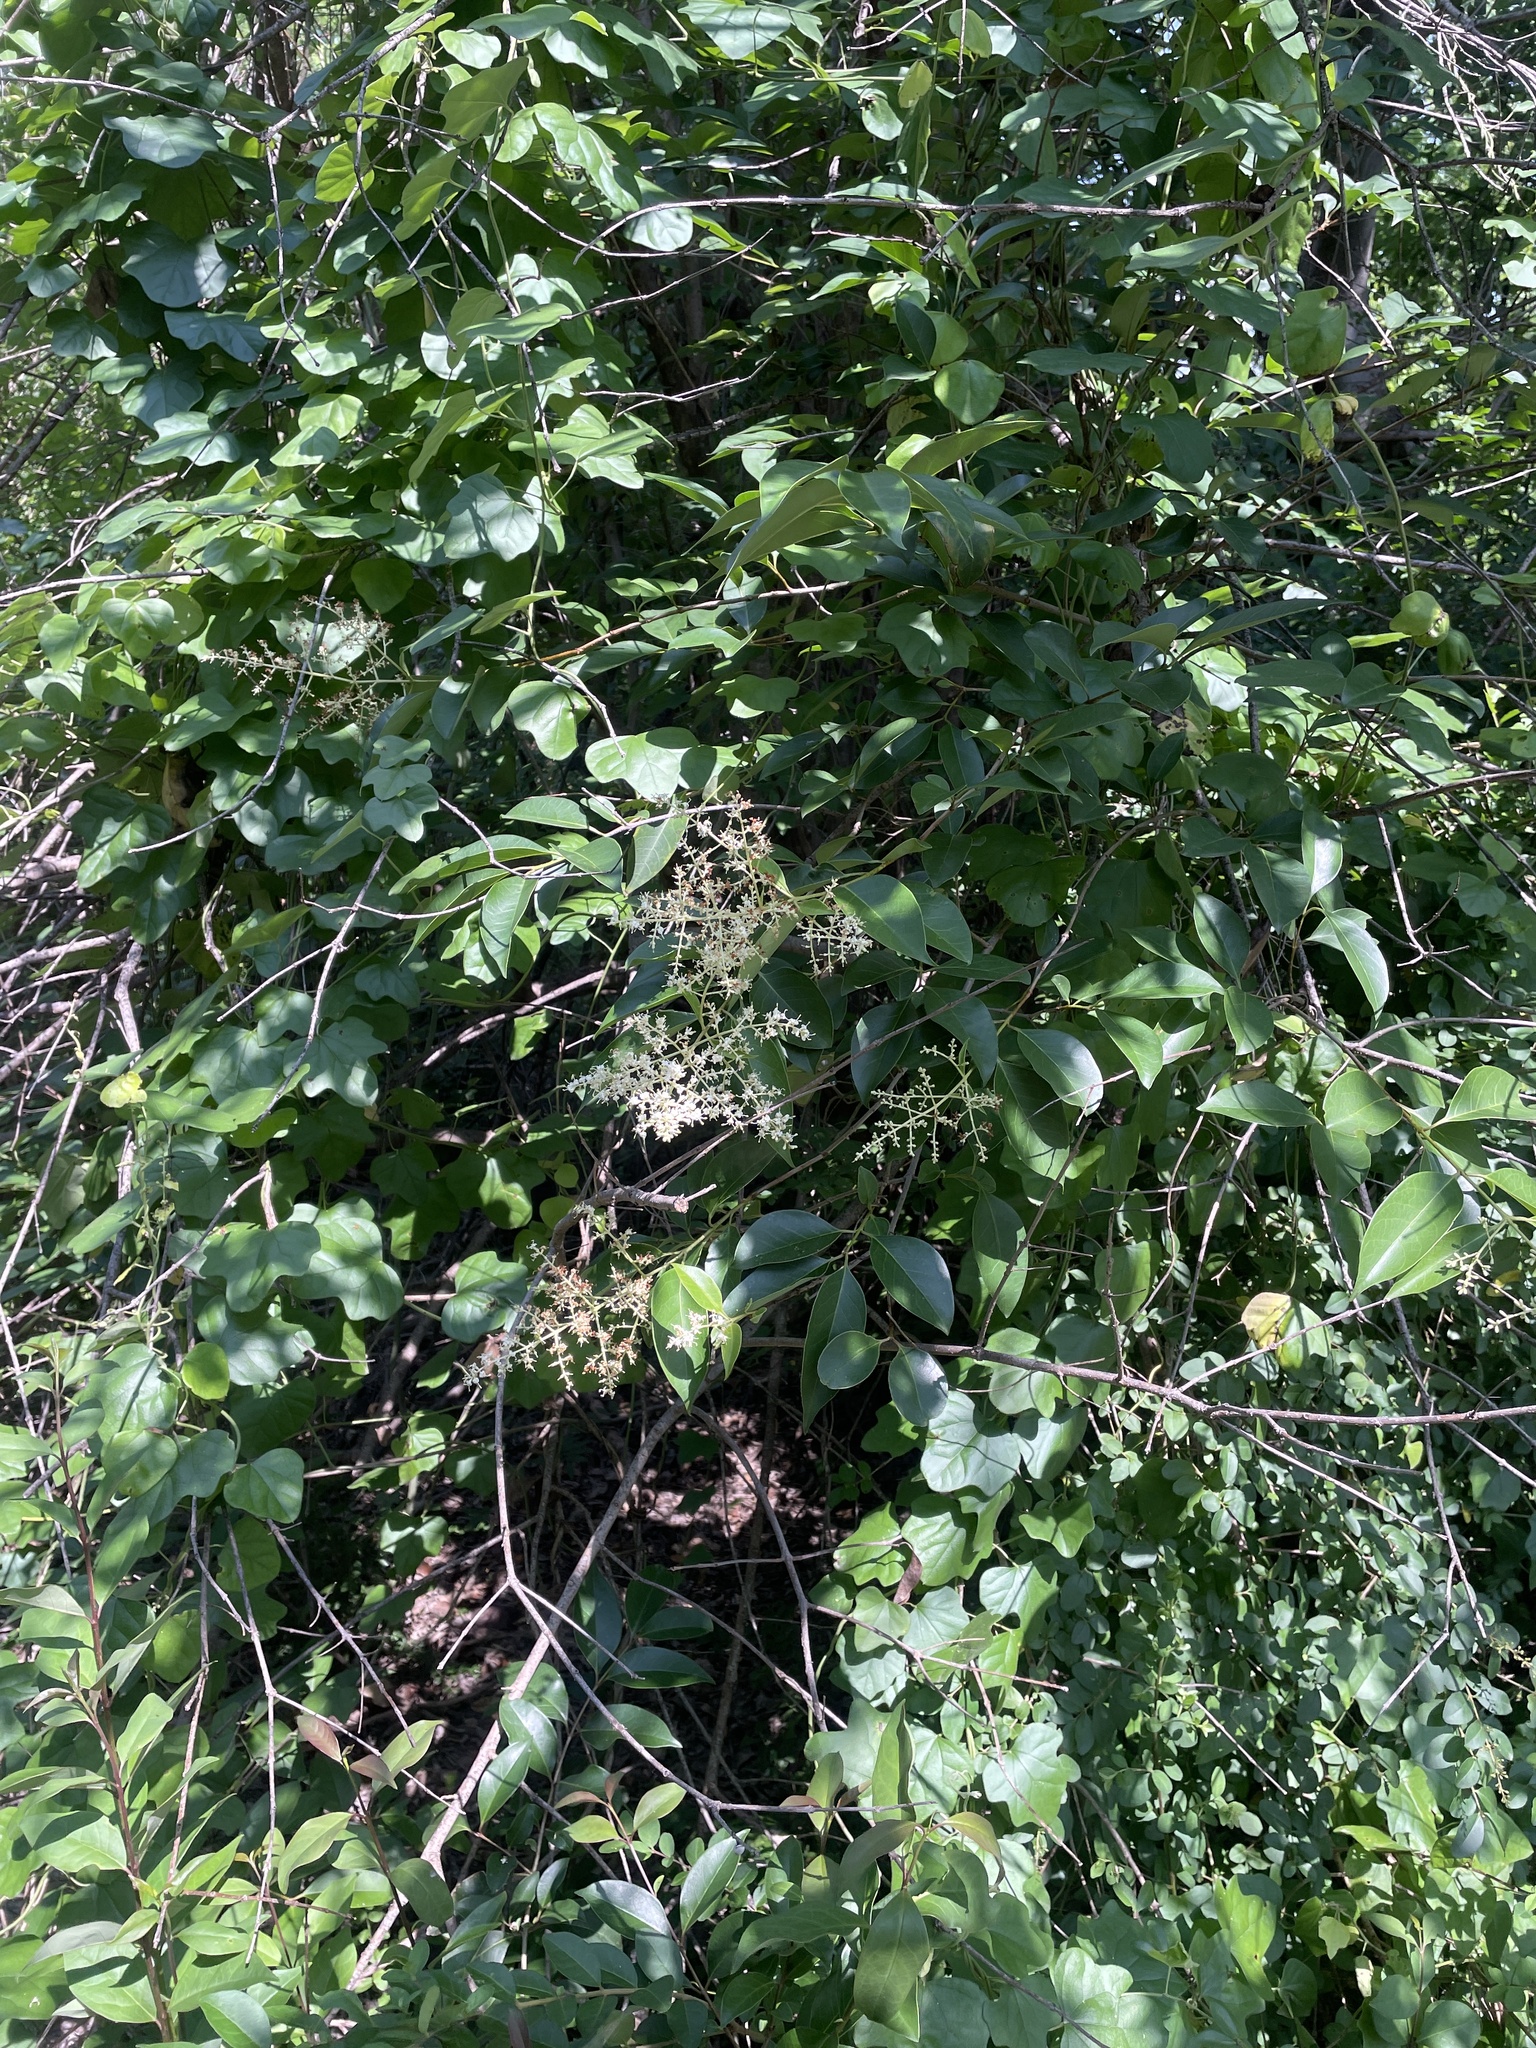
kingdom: Plantae
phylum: Tracheophyta
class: Magnoliopsida
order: Lamiales
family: Oleaceae
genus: Ligustrum
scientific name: Ligustrum lucidum
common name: Glossy privet
